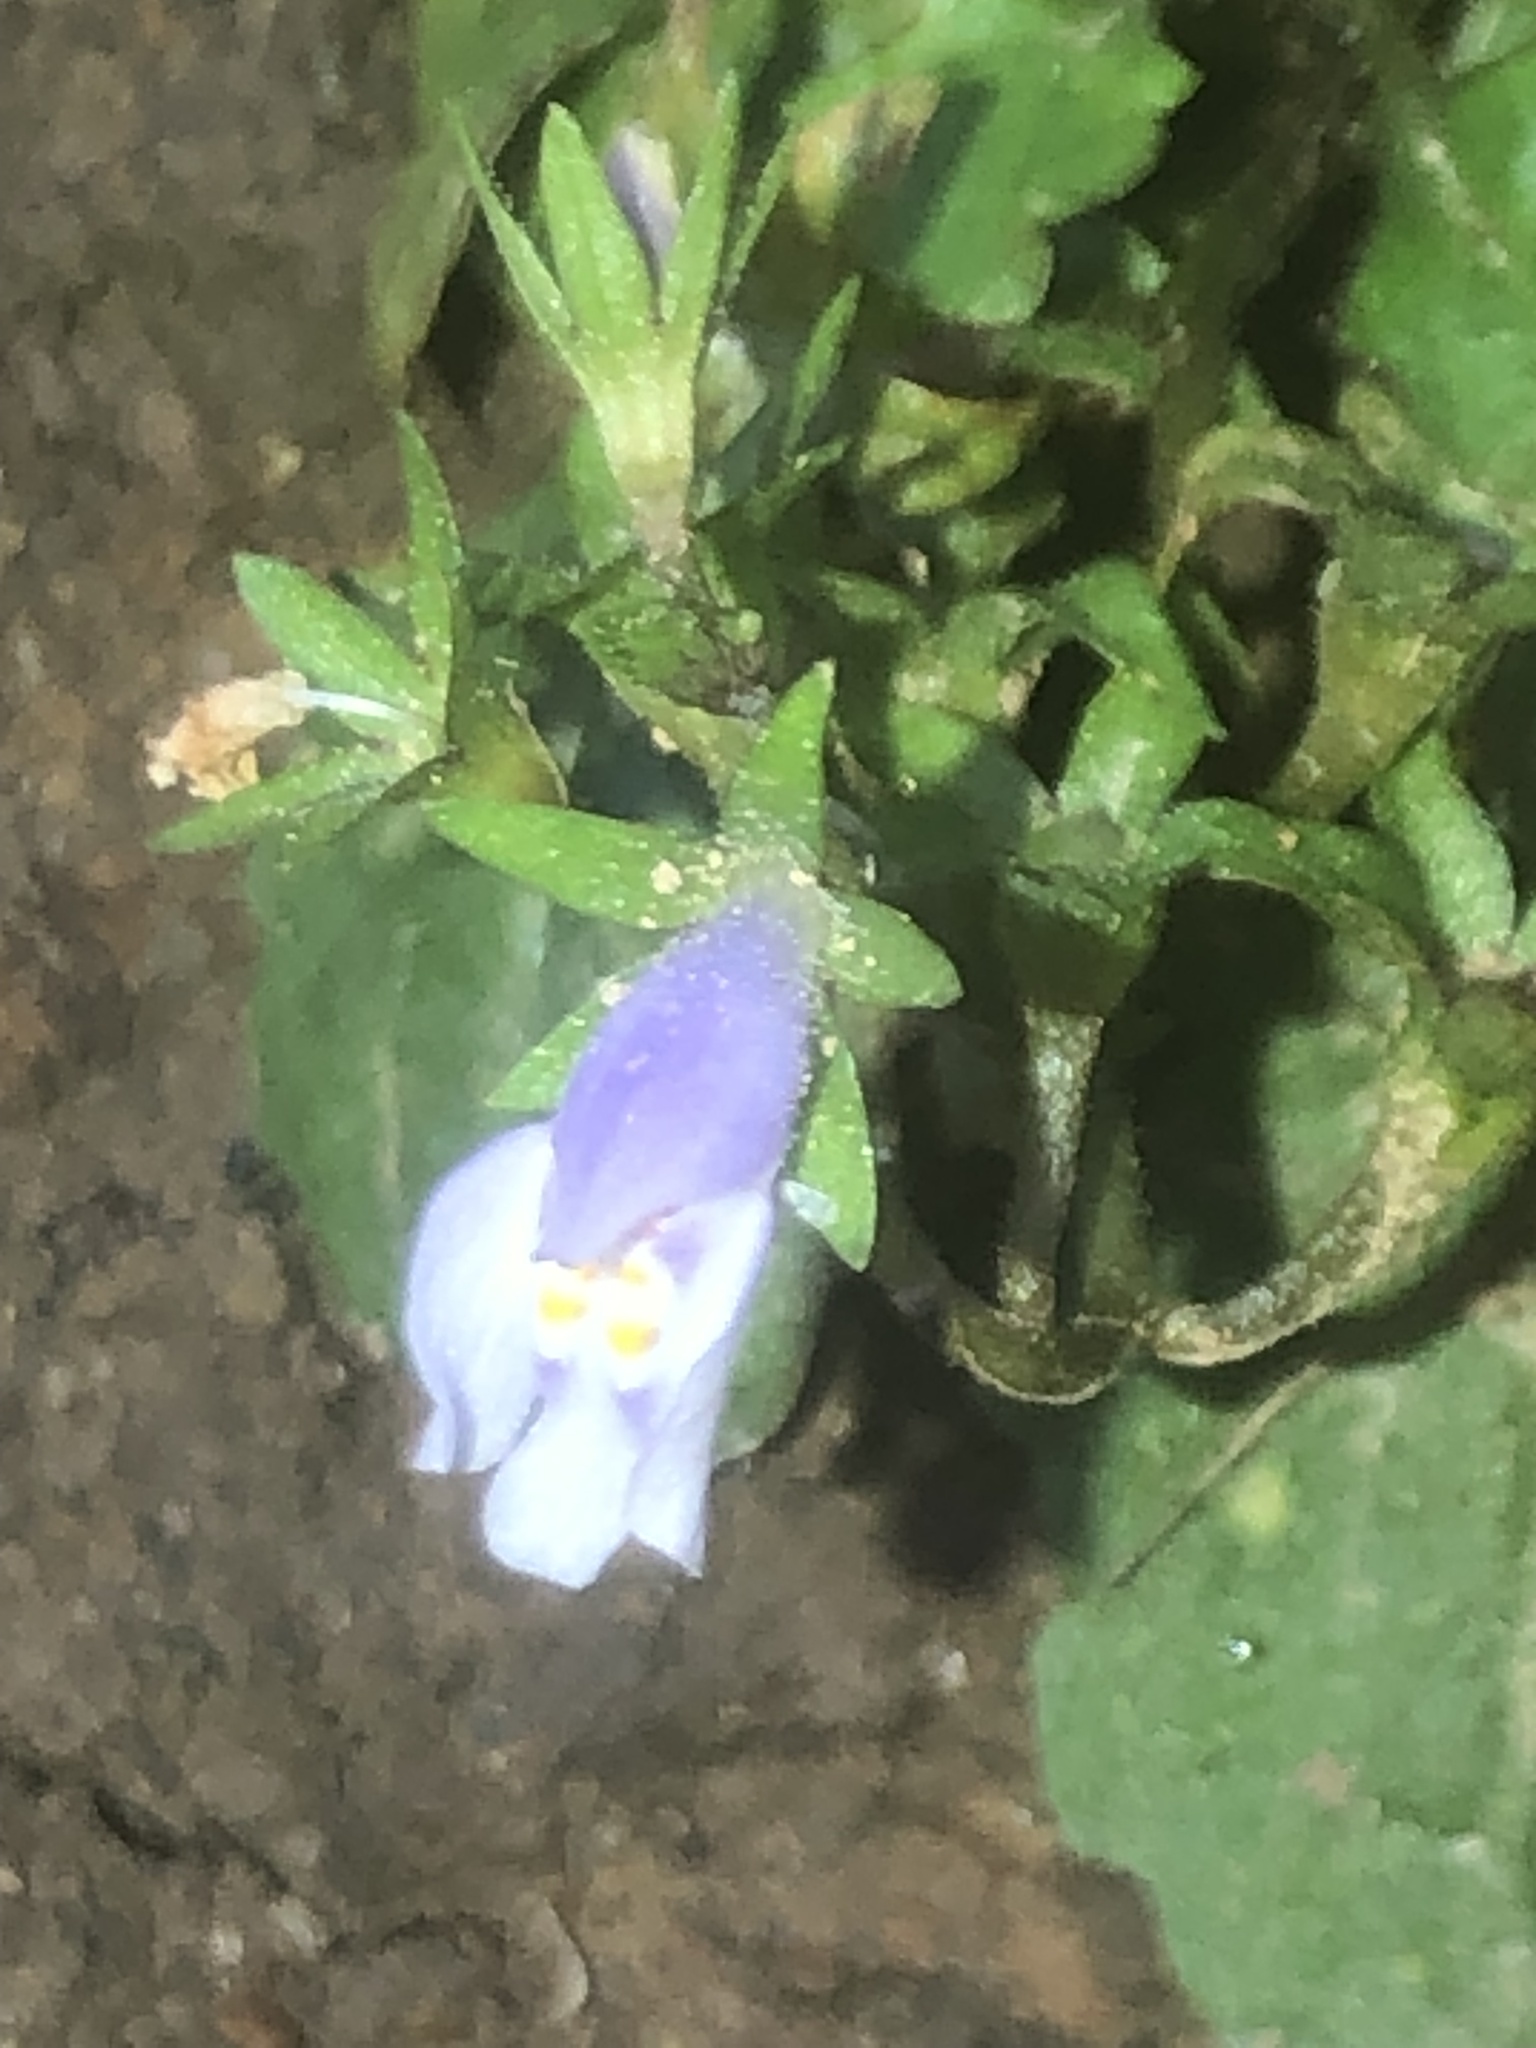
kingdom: Plantae
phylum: Tracheophyta
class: Magnoliopsida
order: Lamiales
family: Mazaceae
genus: Mazus
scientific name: Mazus pumilus
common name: Japanese mazus
